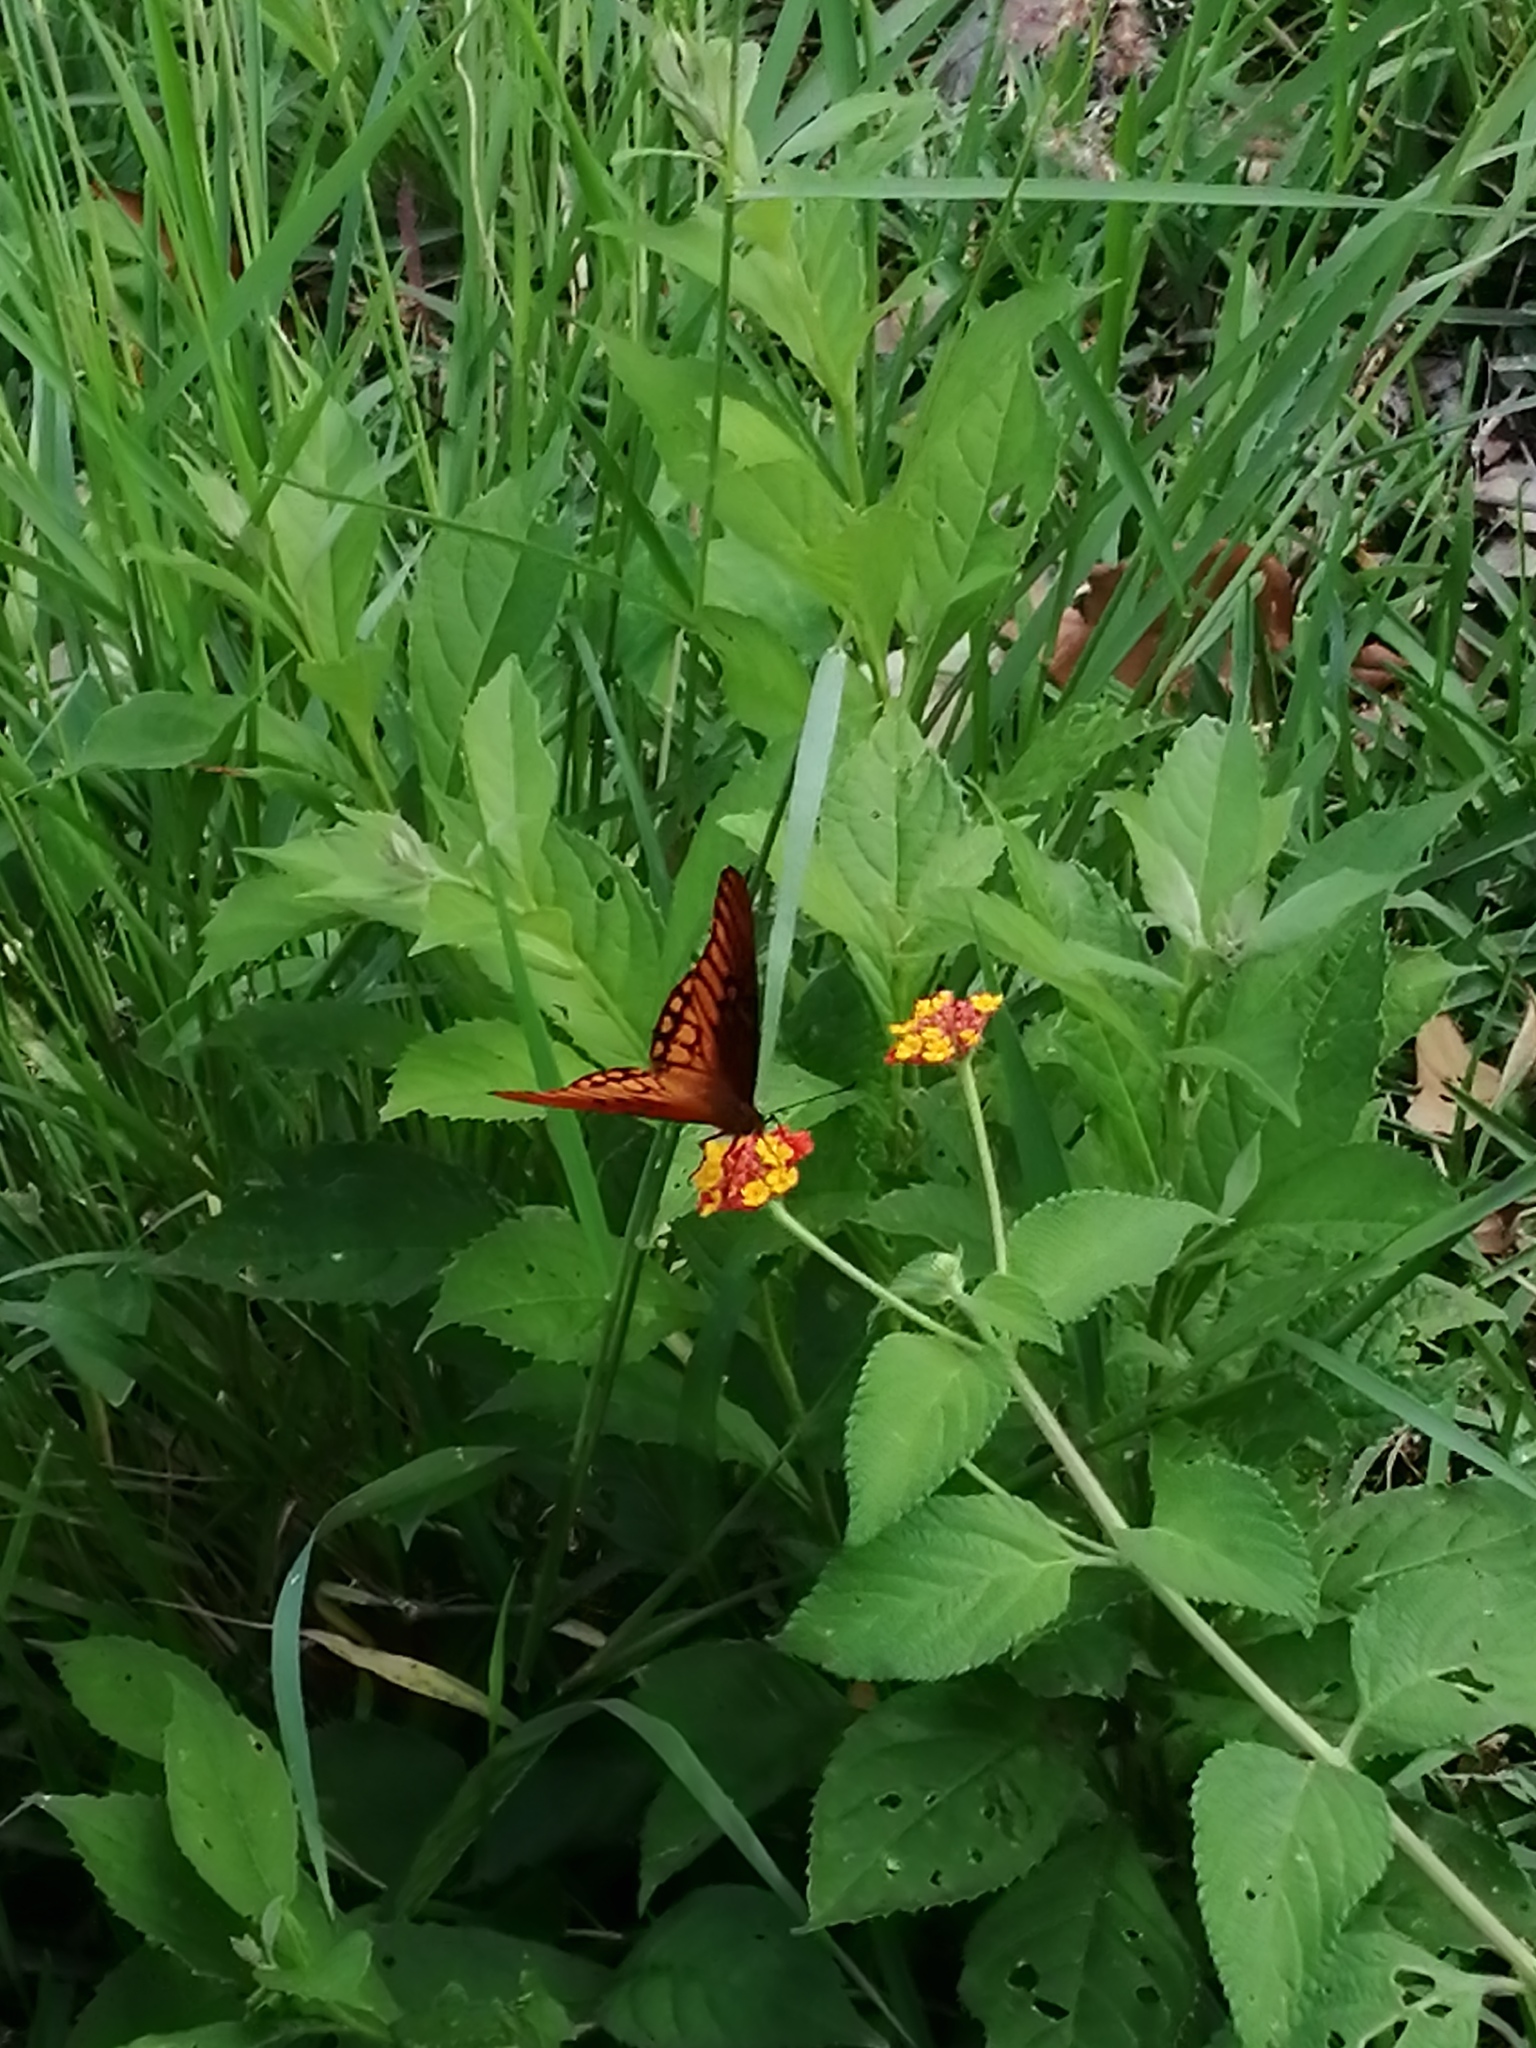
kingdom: Animalia
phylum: Arthropoda
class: Insecta
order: Lepidoptera
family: Nymphalidae
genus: Dione
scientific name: Dione moneta
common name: Mexican silverspot
